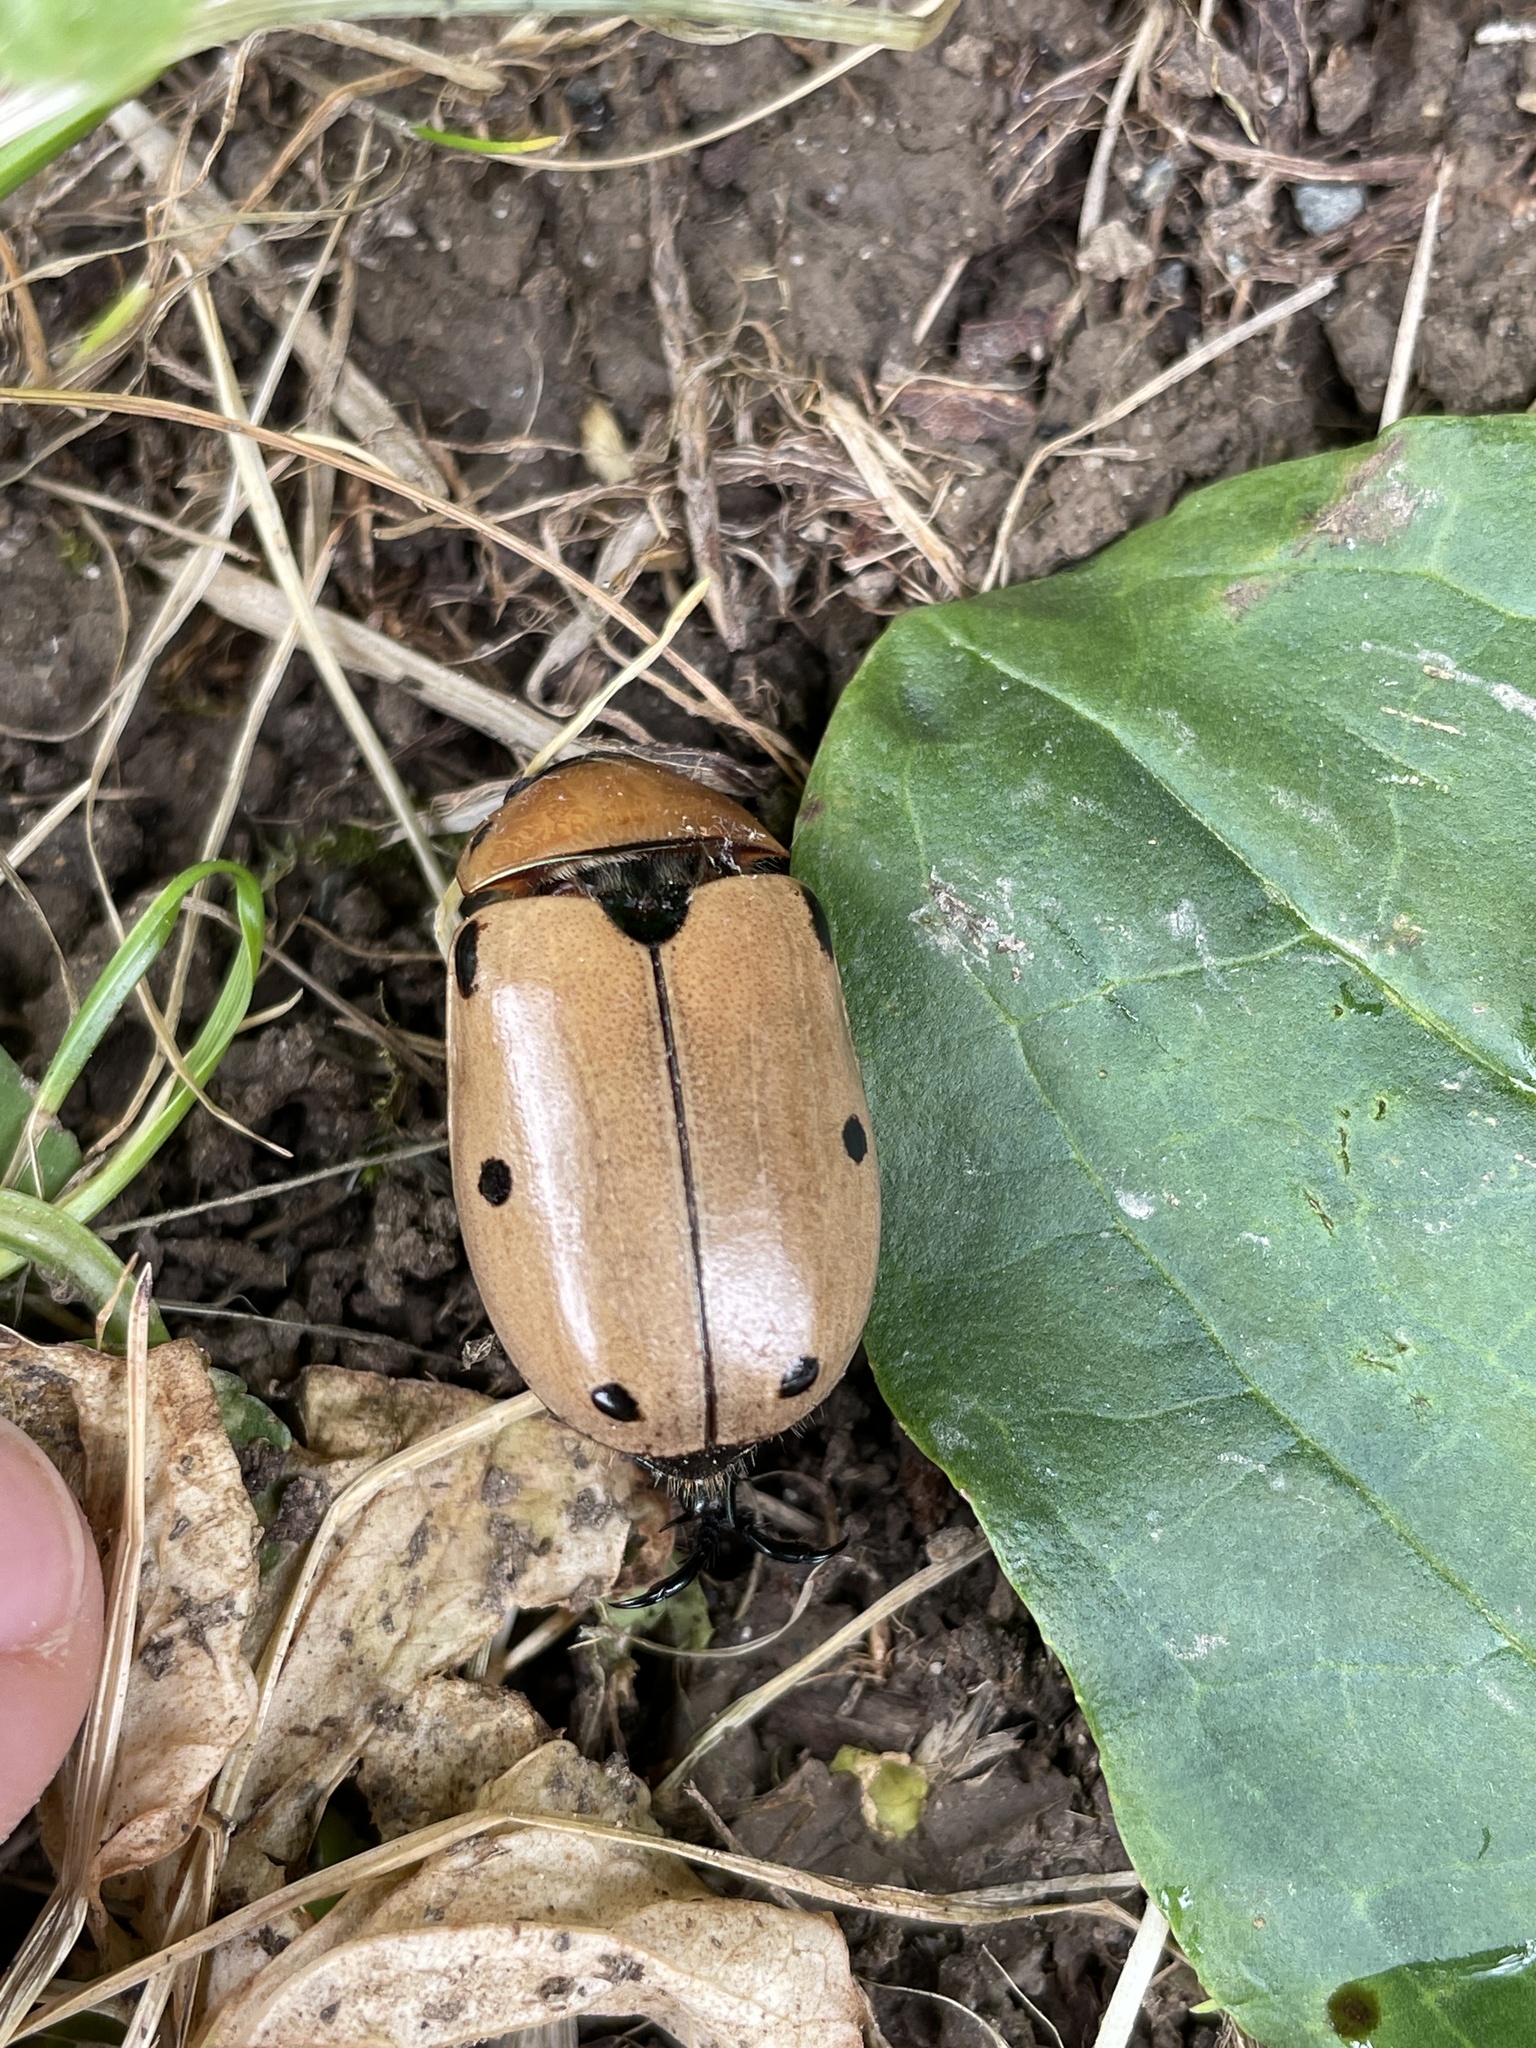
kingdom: Animalia
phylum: Arthropoda
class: Insecta
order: Coleoptera
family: Scarabaeidae
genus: Pelidnota
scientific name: Pelidnota punctata
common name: Grapevine beetle
